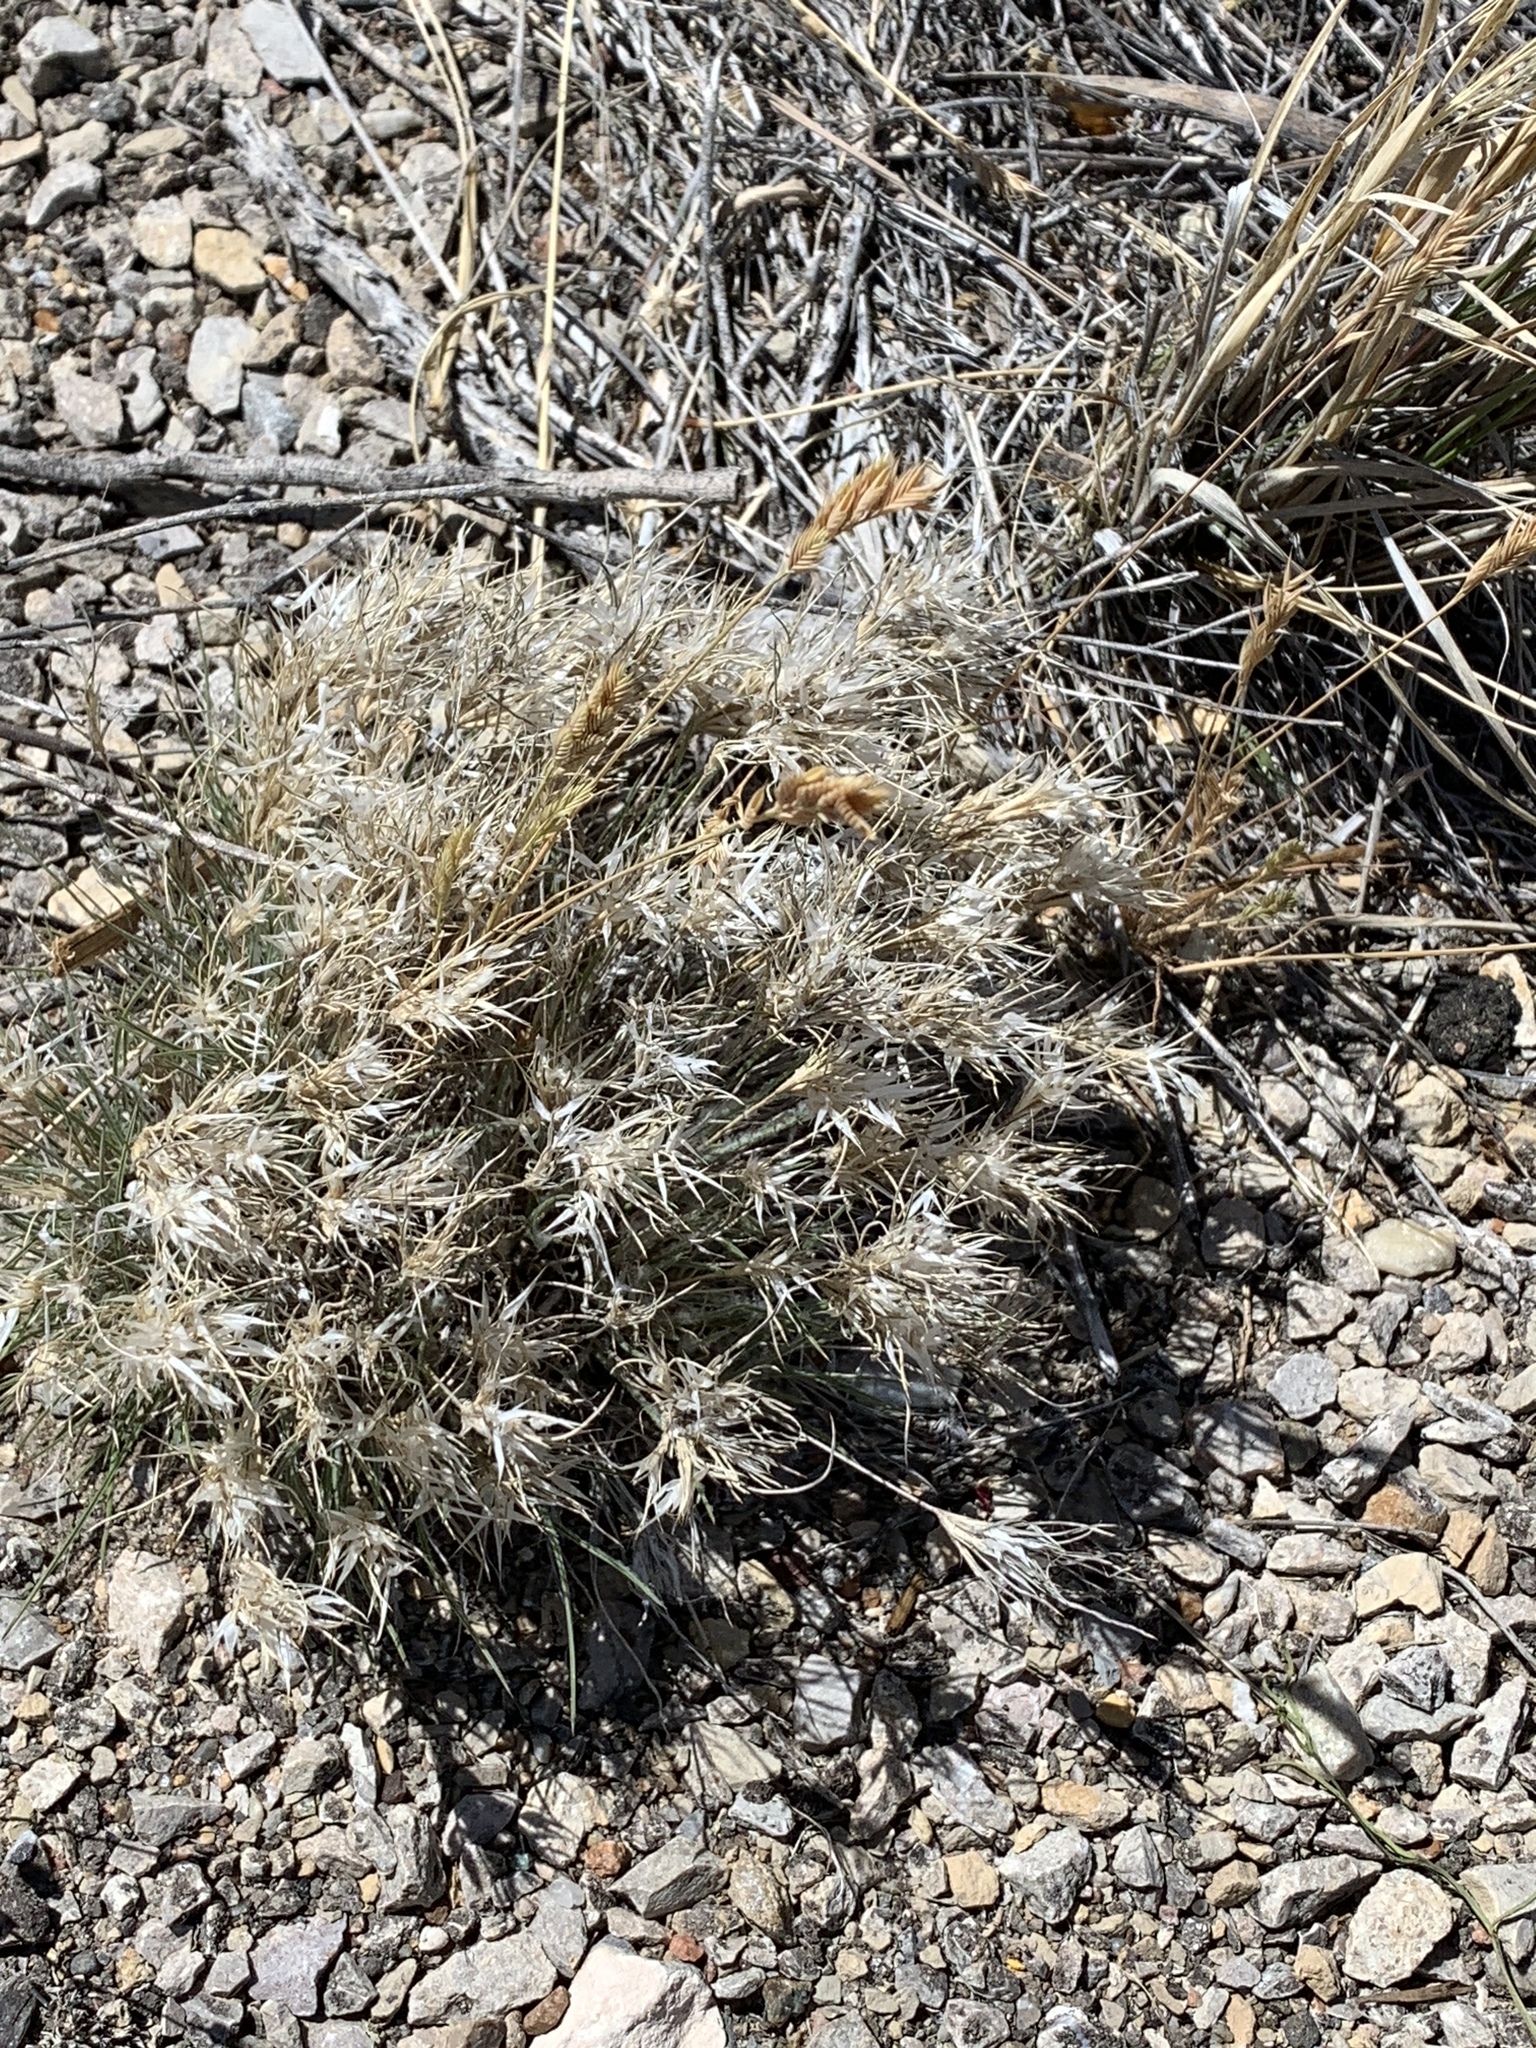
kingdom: Plantae
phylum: Tracheophyta
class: Liliopsida
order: Poales
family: Poaceae
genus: Dasyochloa
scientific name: Dasyochloa pulchella
